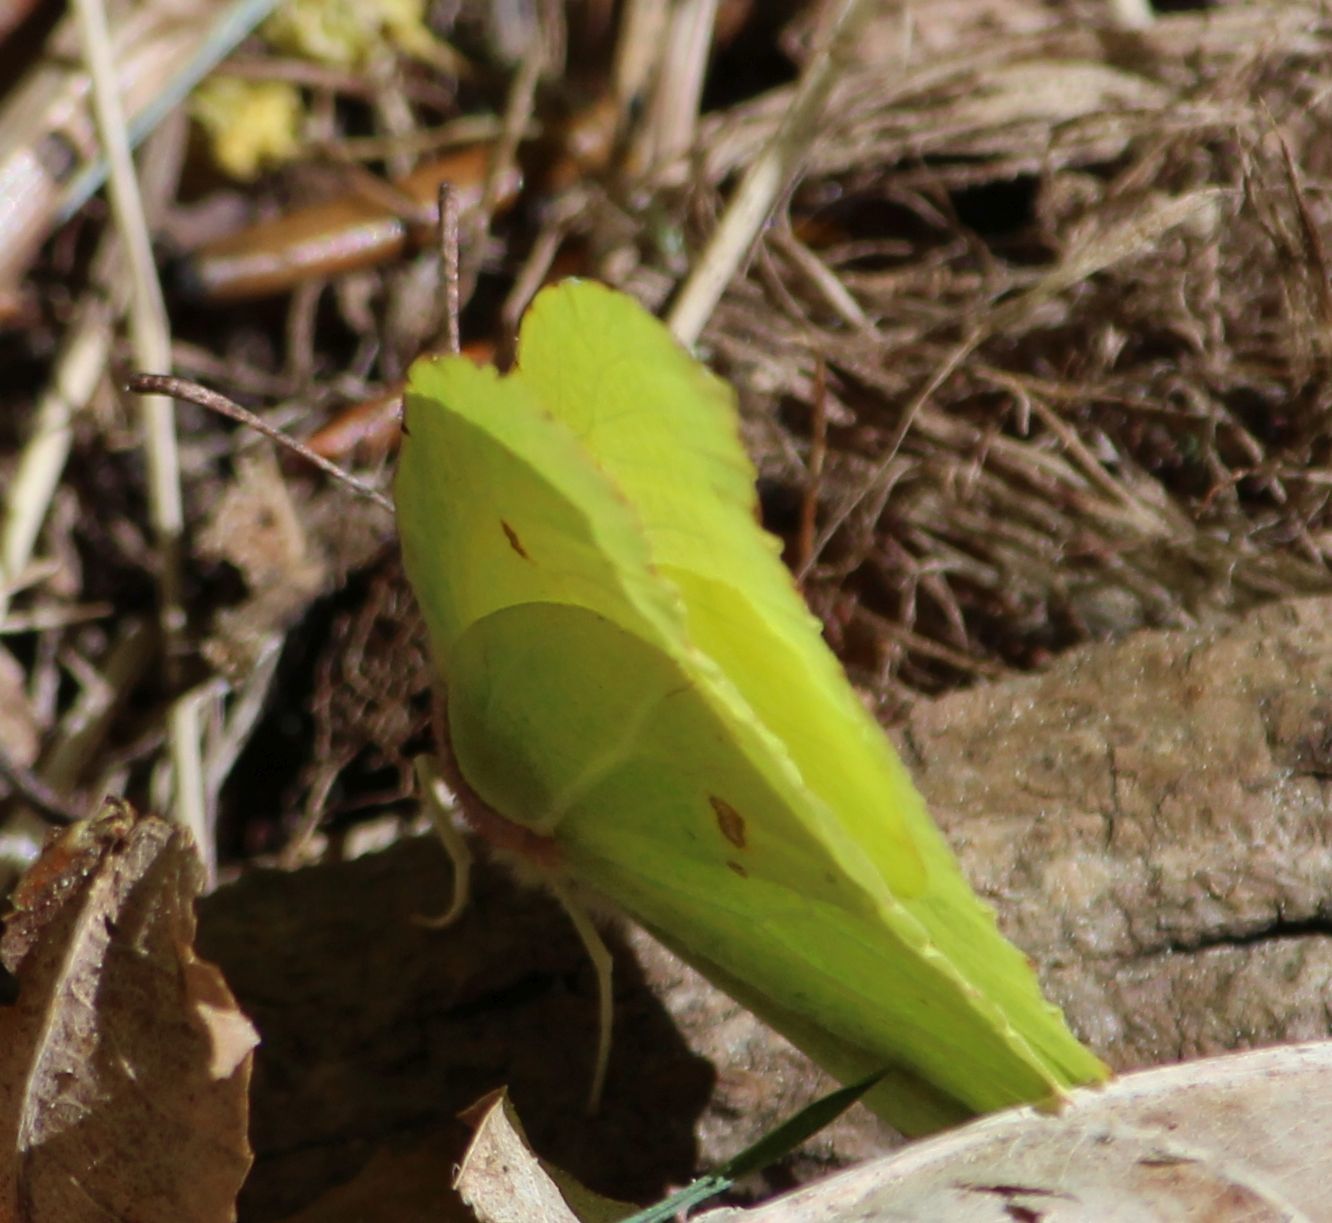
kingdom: Animalia
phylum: Arthropoda
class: Insecta
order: Lepidoptera
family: Pieridae
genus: Gonepteryx
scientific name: Gonepteryx rhamni
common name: Brimstone
